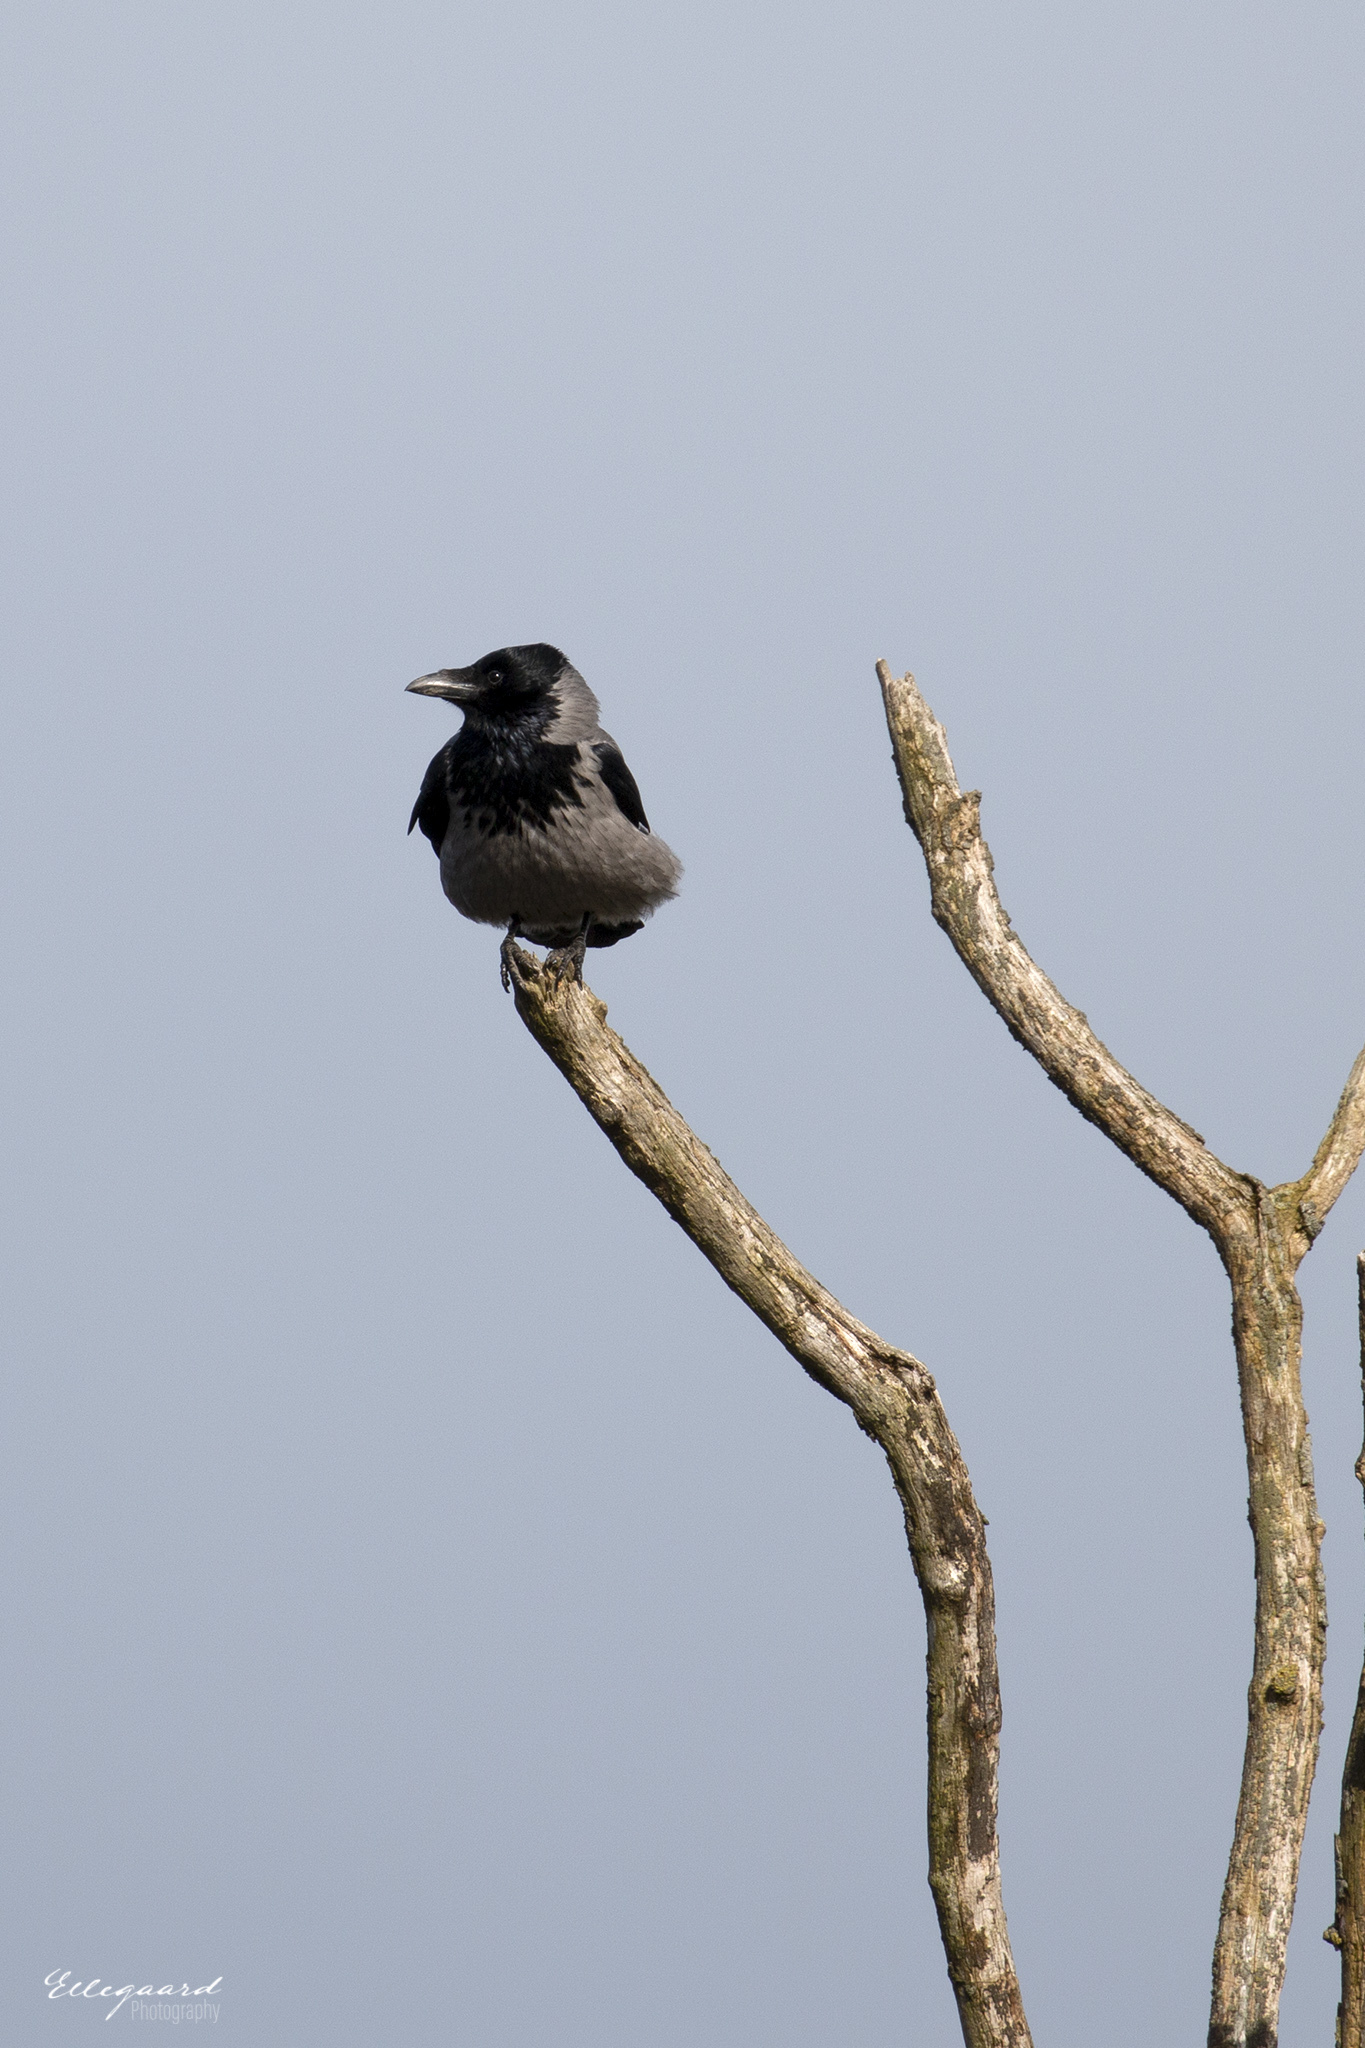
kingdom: Animalia
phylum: Chordata
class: Aves
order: Passeriformes
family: Corvidae
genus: Corvus
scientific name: Corvus cornix
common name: Hooded crow
